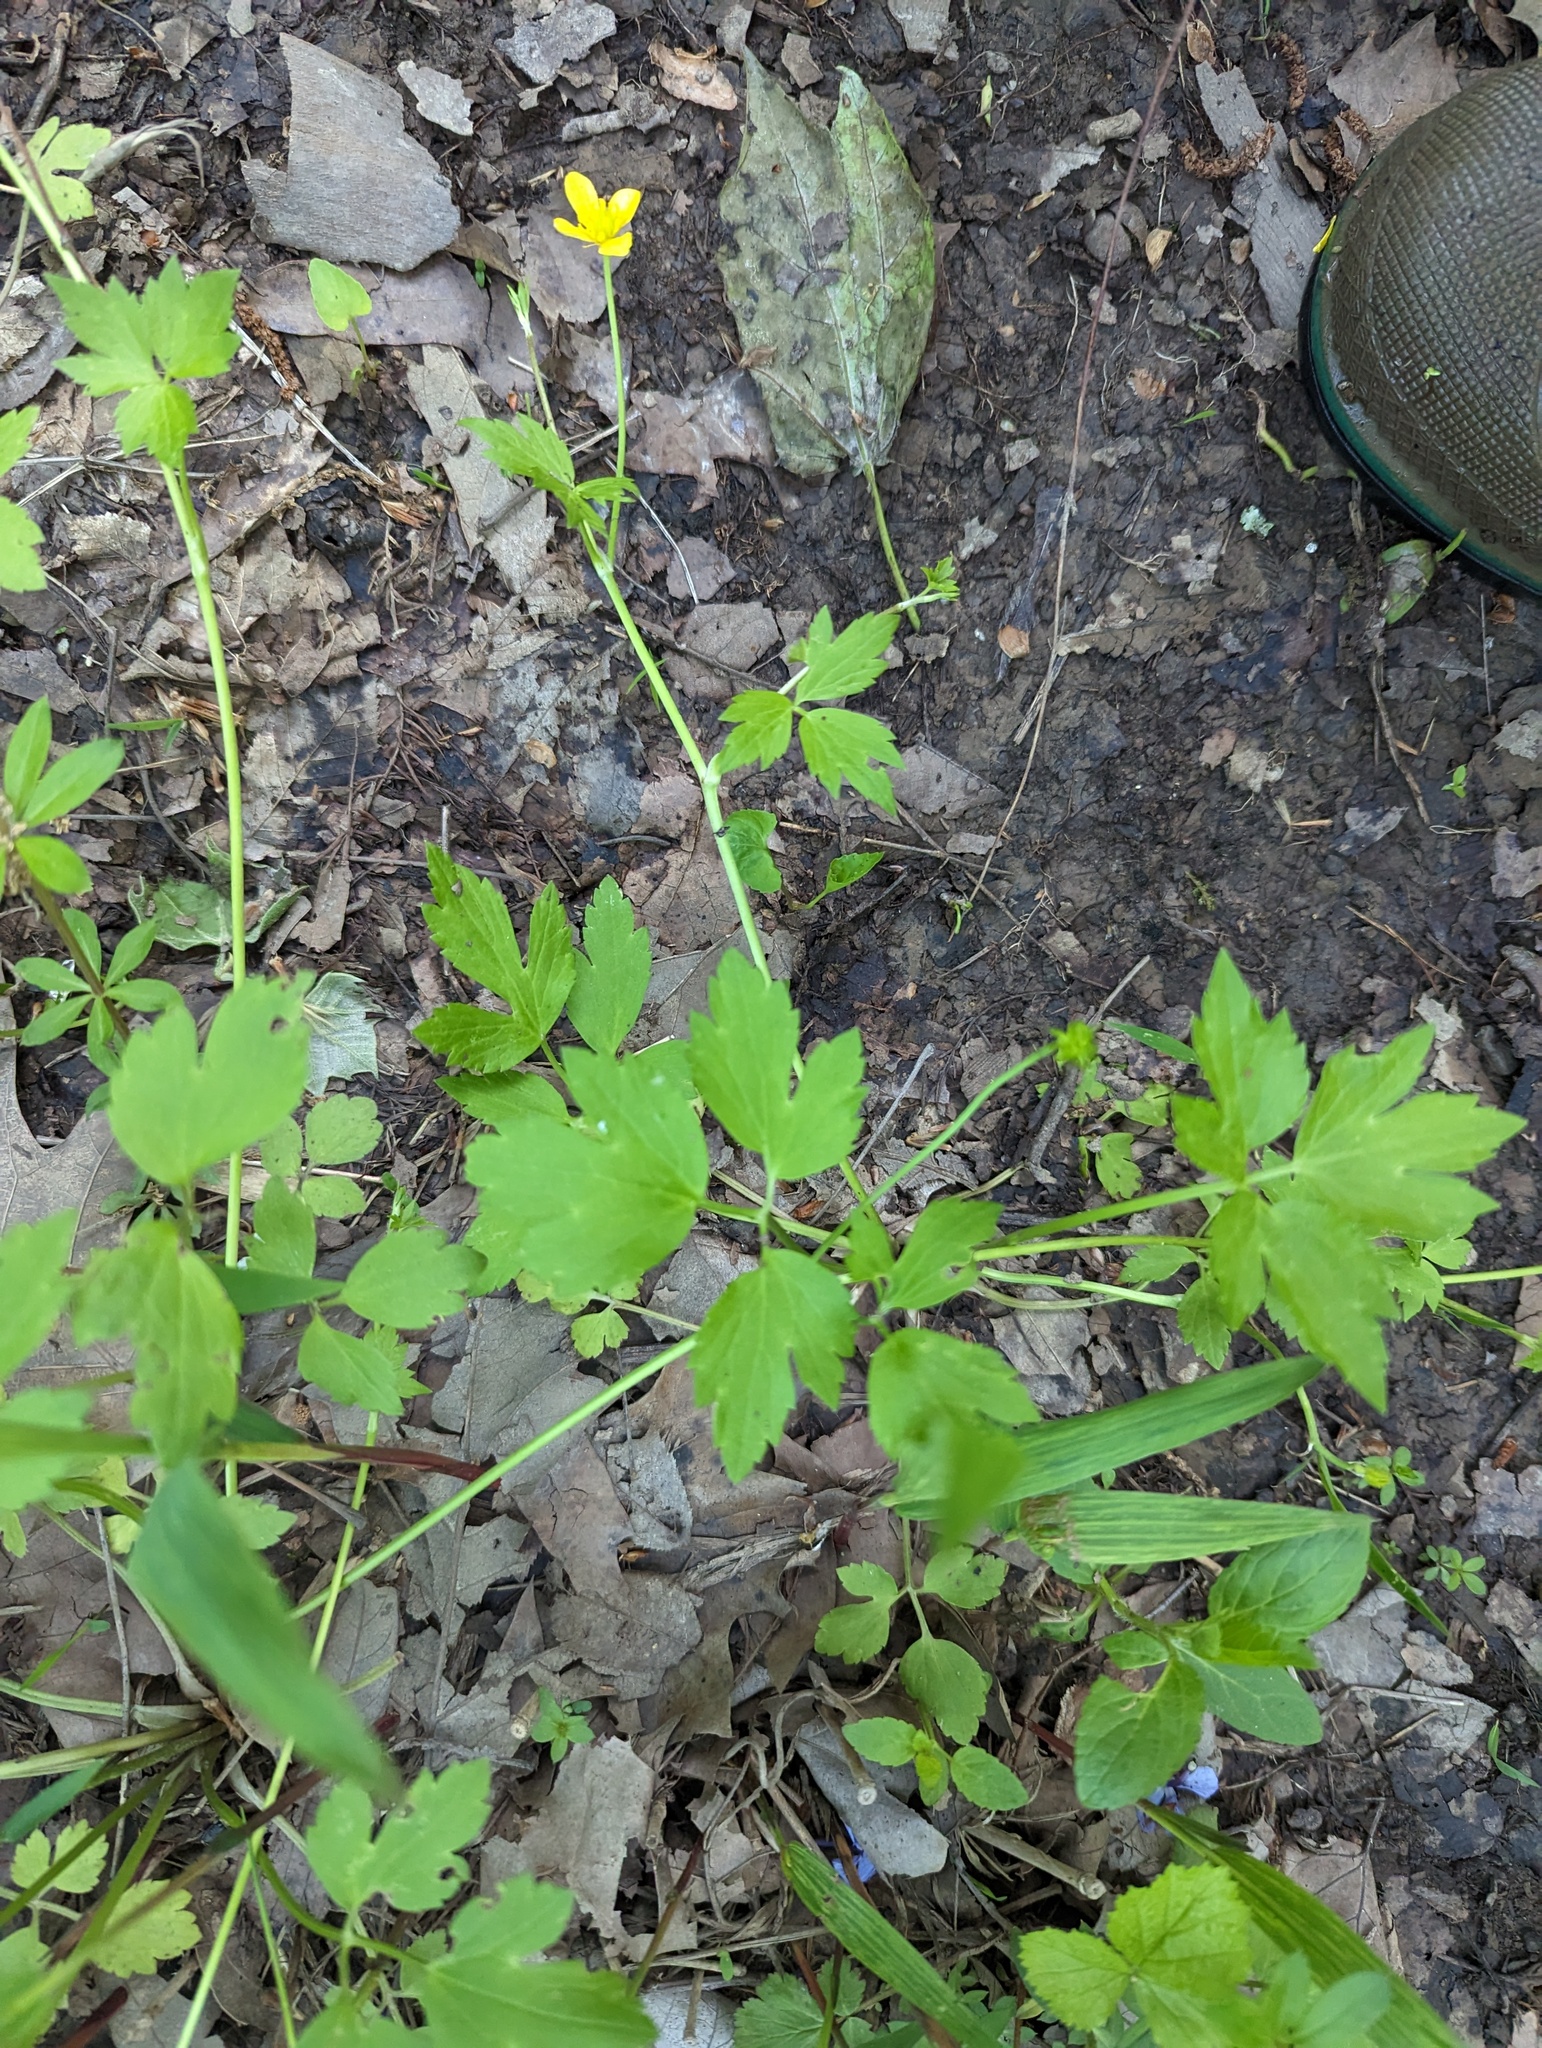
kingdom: Plantae
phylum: Tracheophyta
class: Magnoliopsida
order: Ranunculales
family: Ranunculaceae
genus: Ranunculus
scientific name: Ranunculus hispidus
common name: Bristly buttercup
